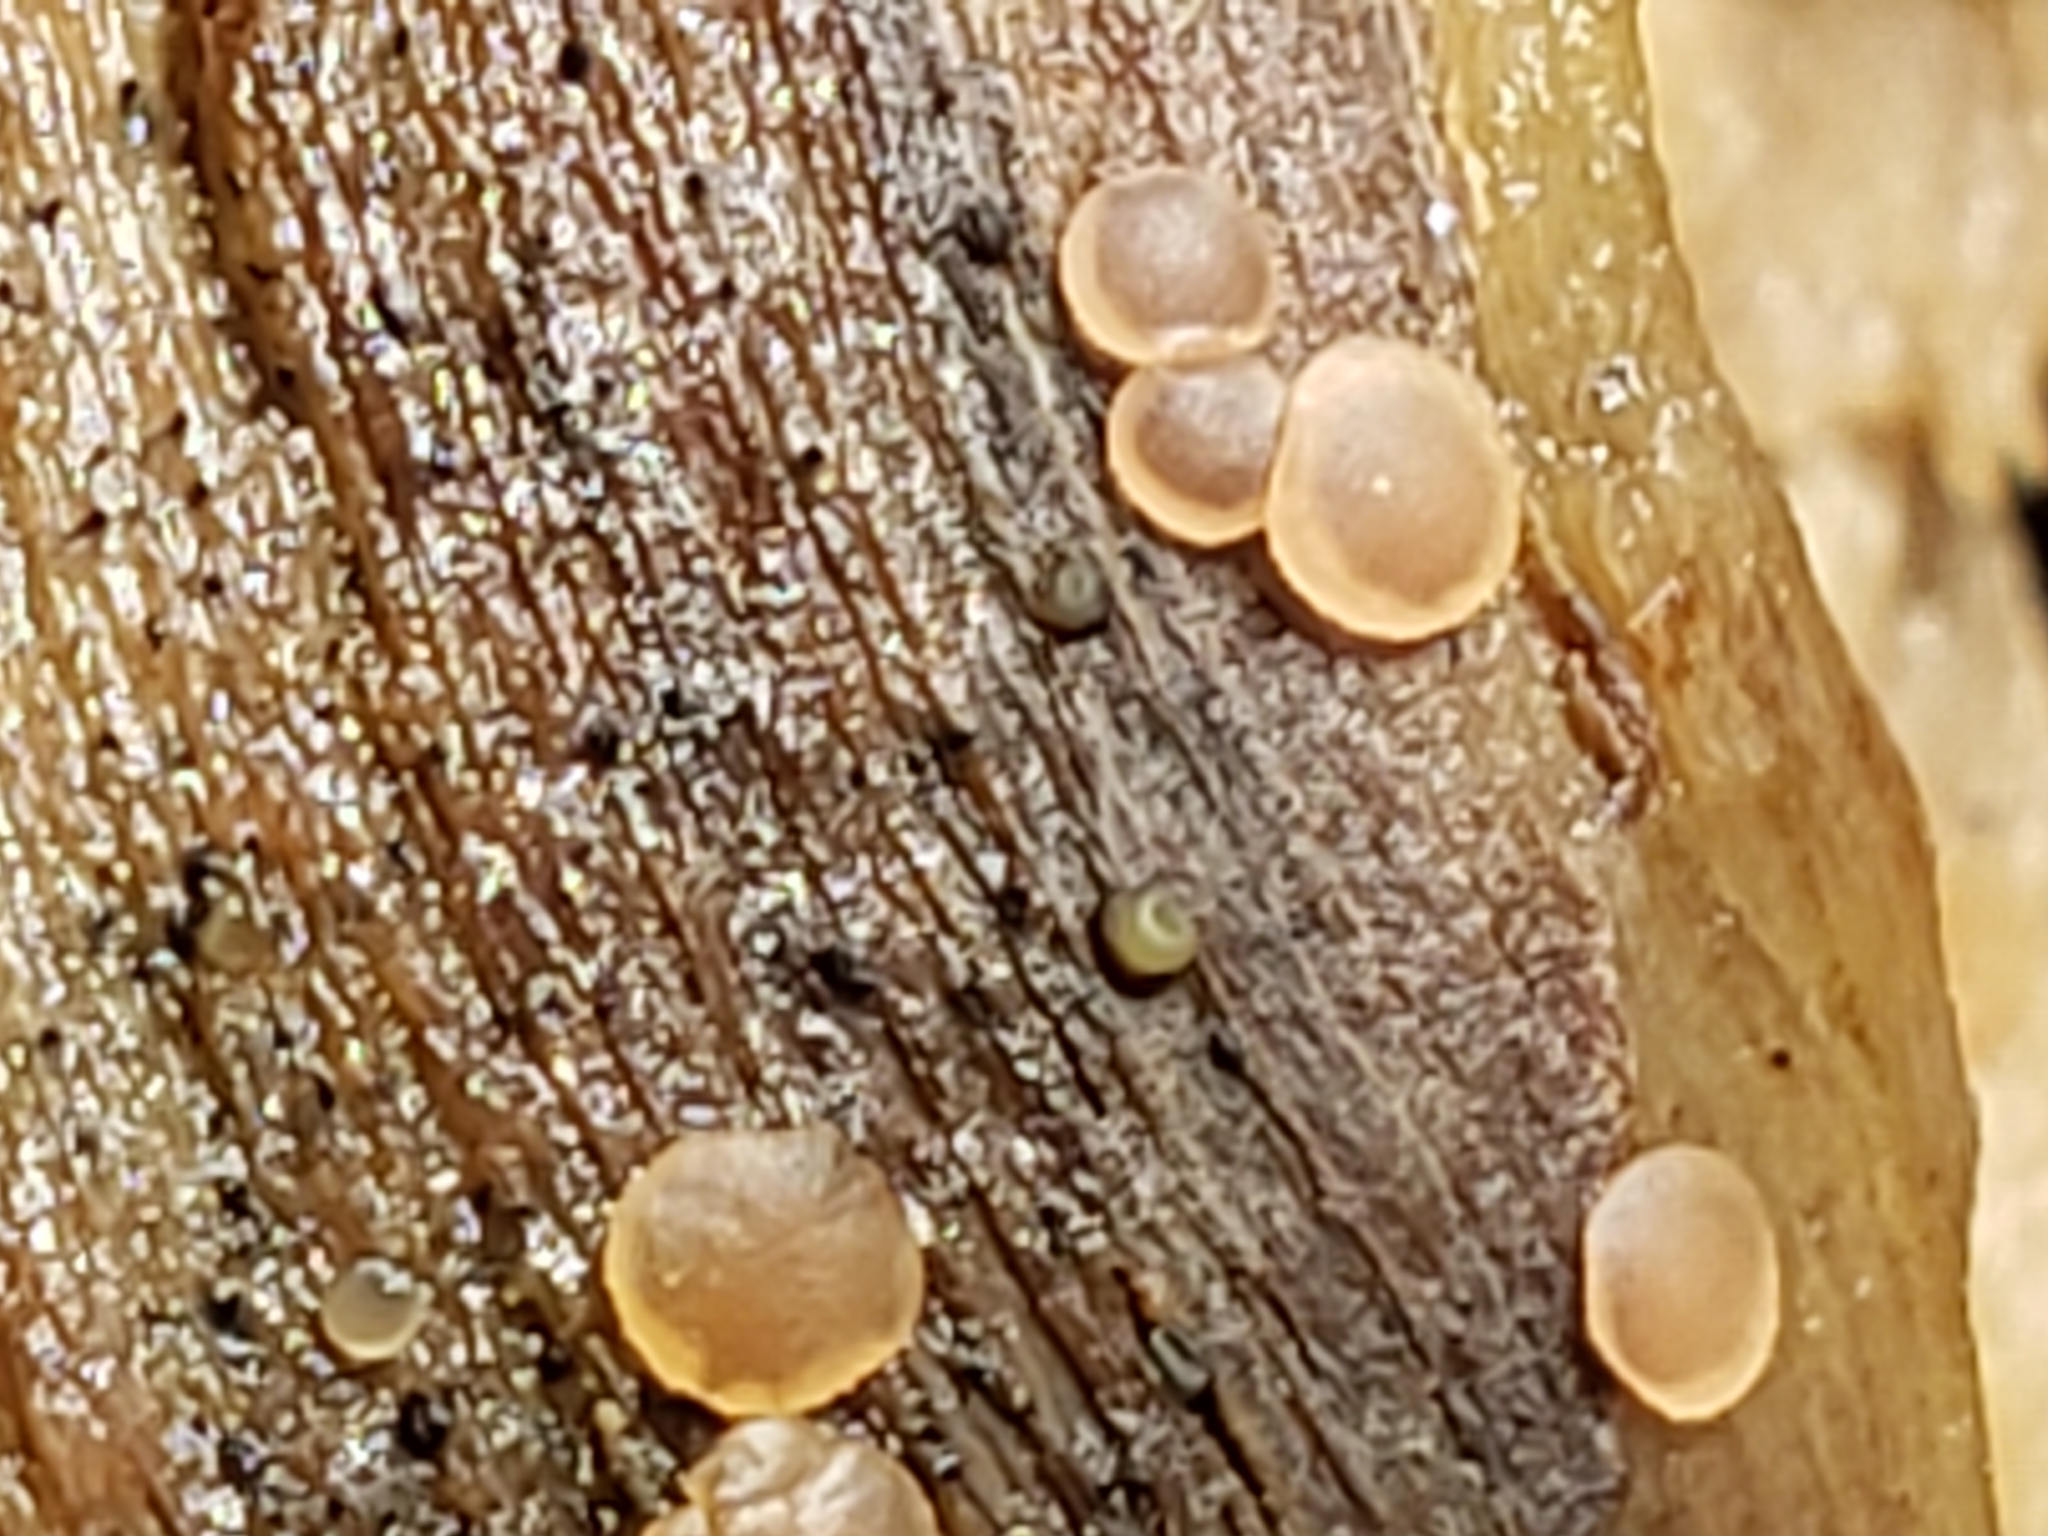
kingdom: Fungi
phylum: Ascomycota
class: Orbiliomycetes
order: Orbiliales
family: Orbiliaceae
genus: Orbilia
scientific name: Orbilia
